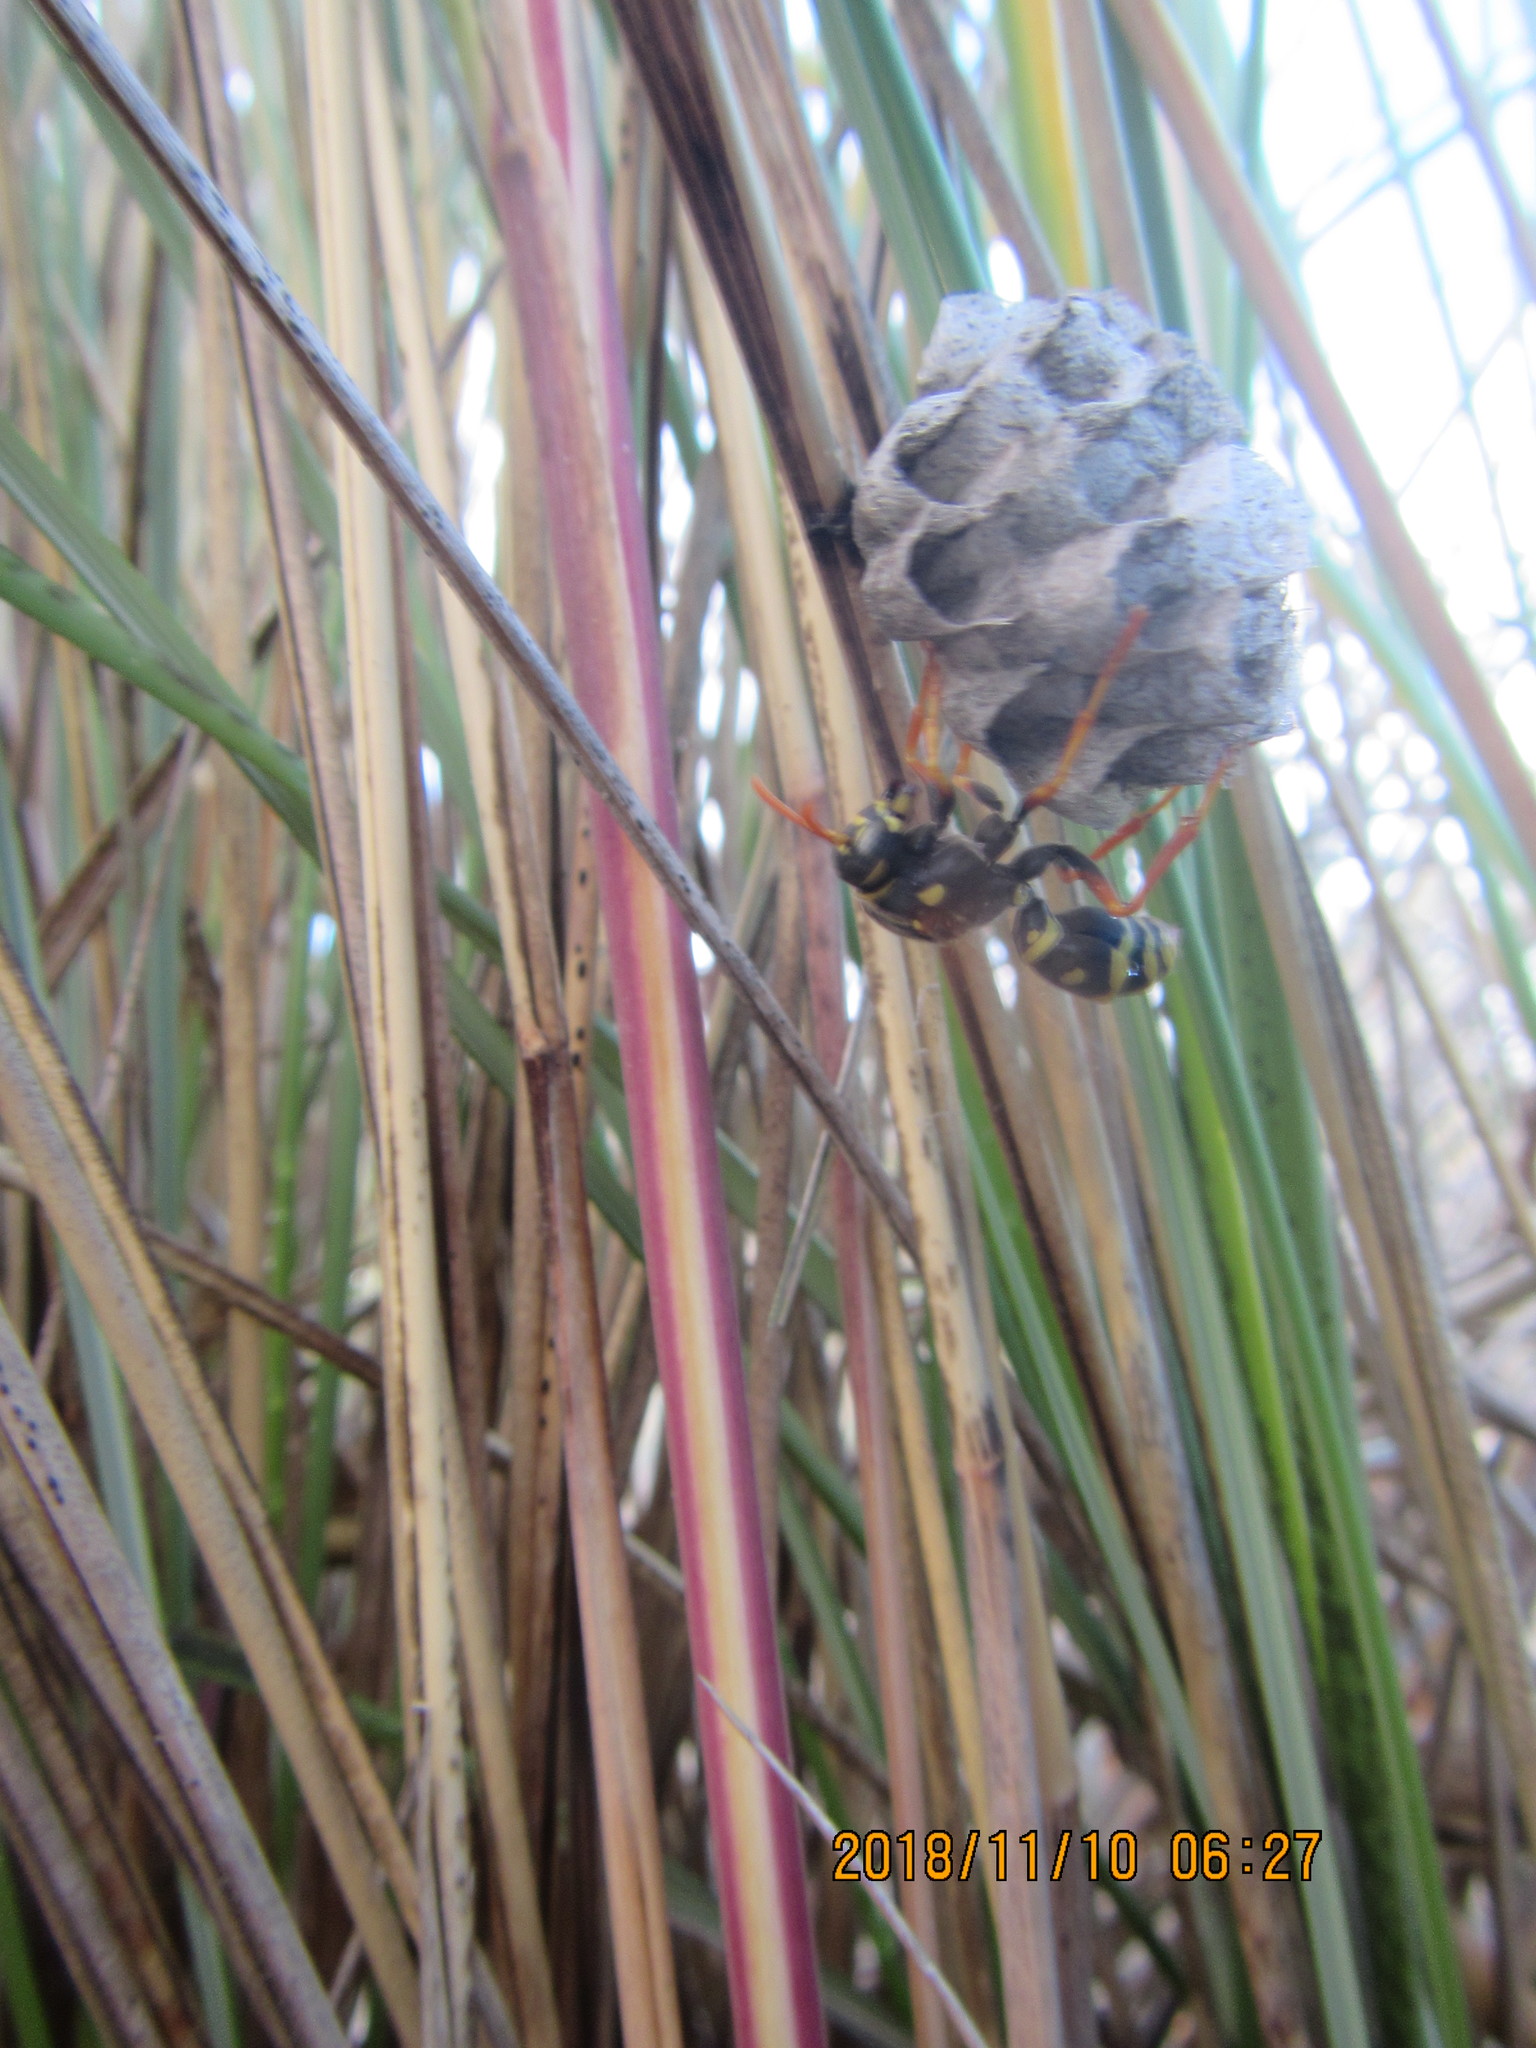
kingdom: Animalia
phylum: Arthropoda
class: Insecta
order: Hymenoptera
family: Eumenidae
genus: Polistes
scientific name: Polistes chinensis
